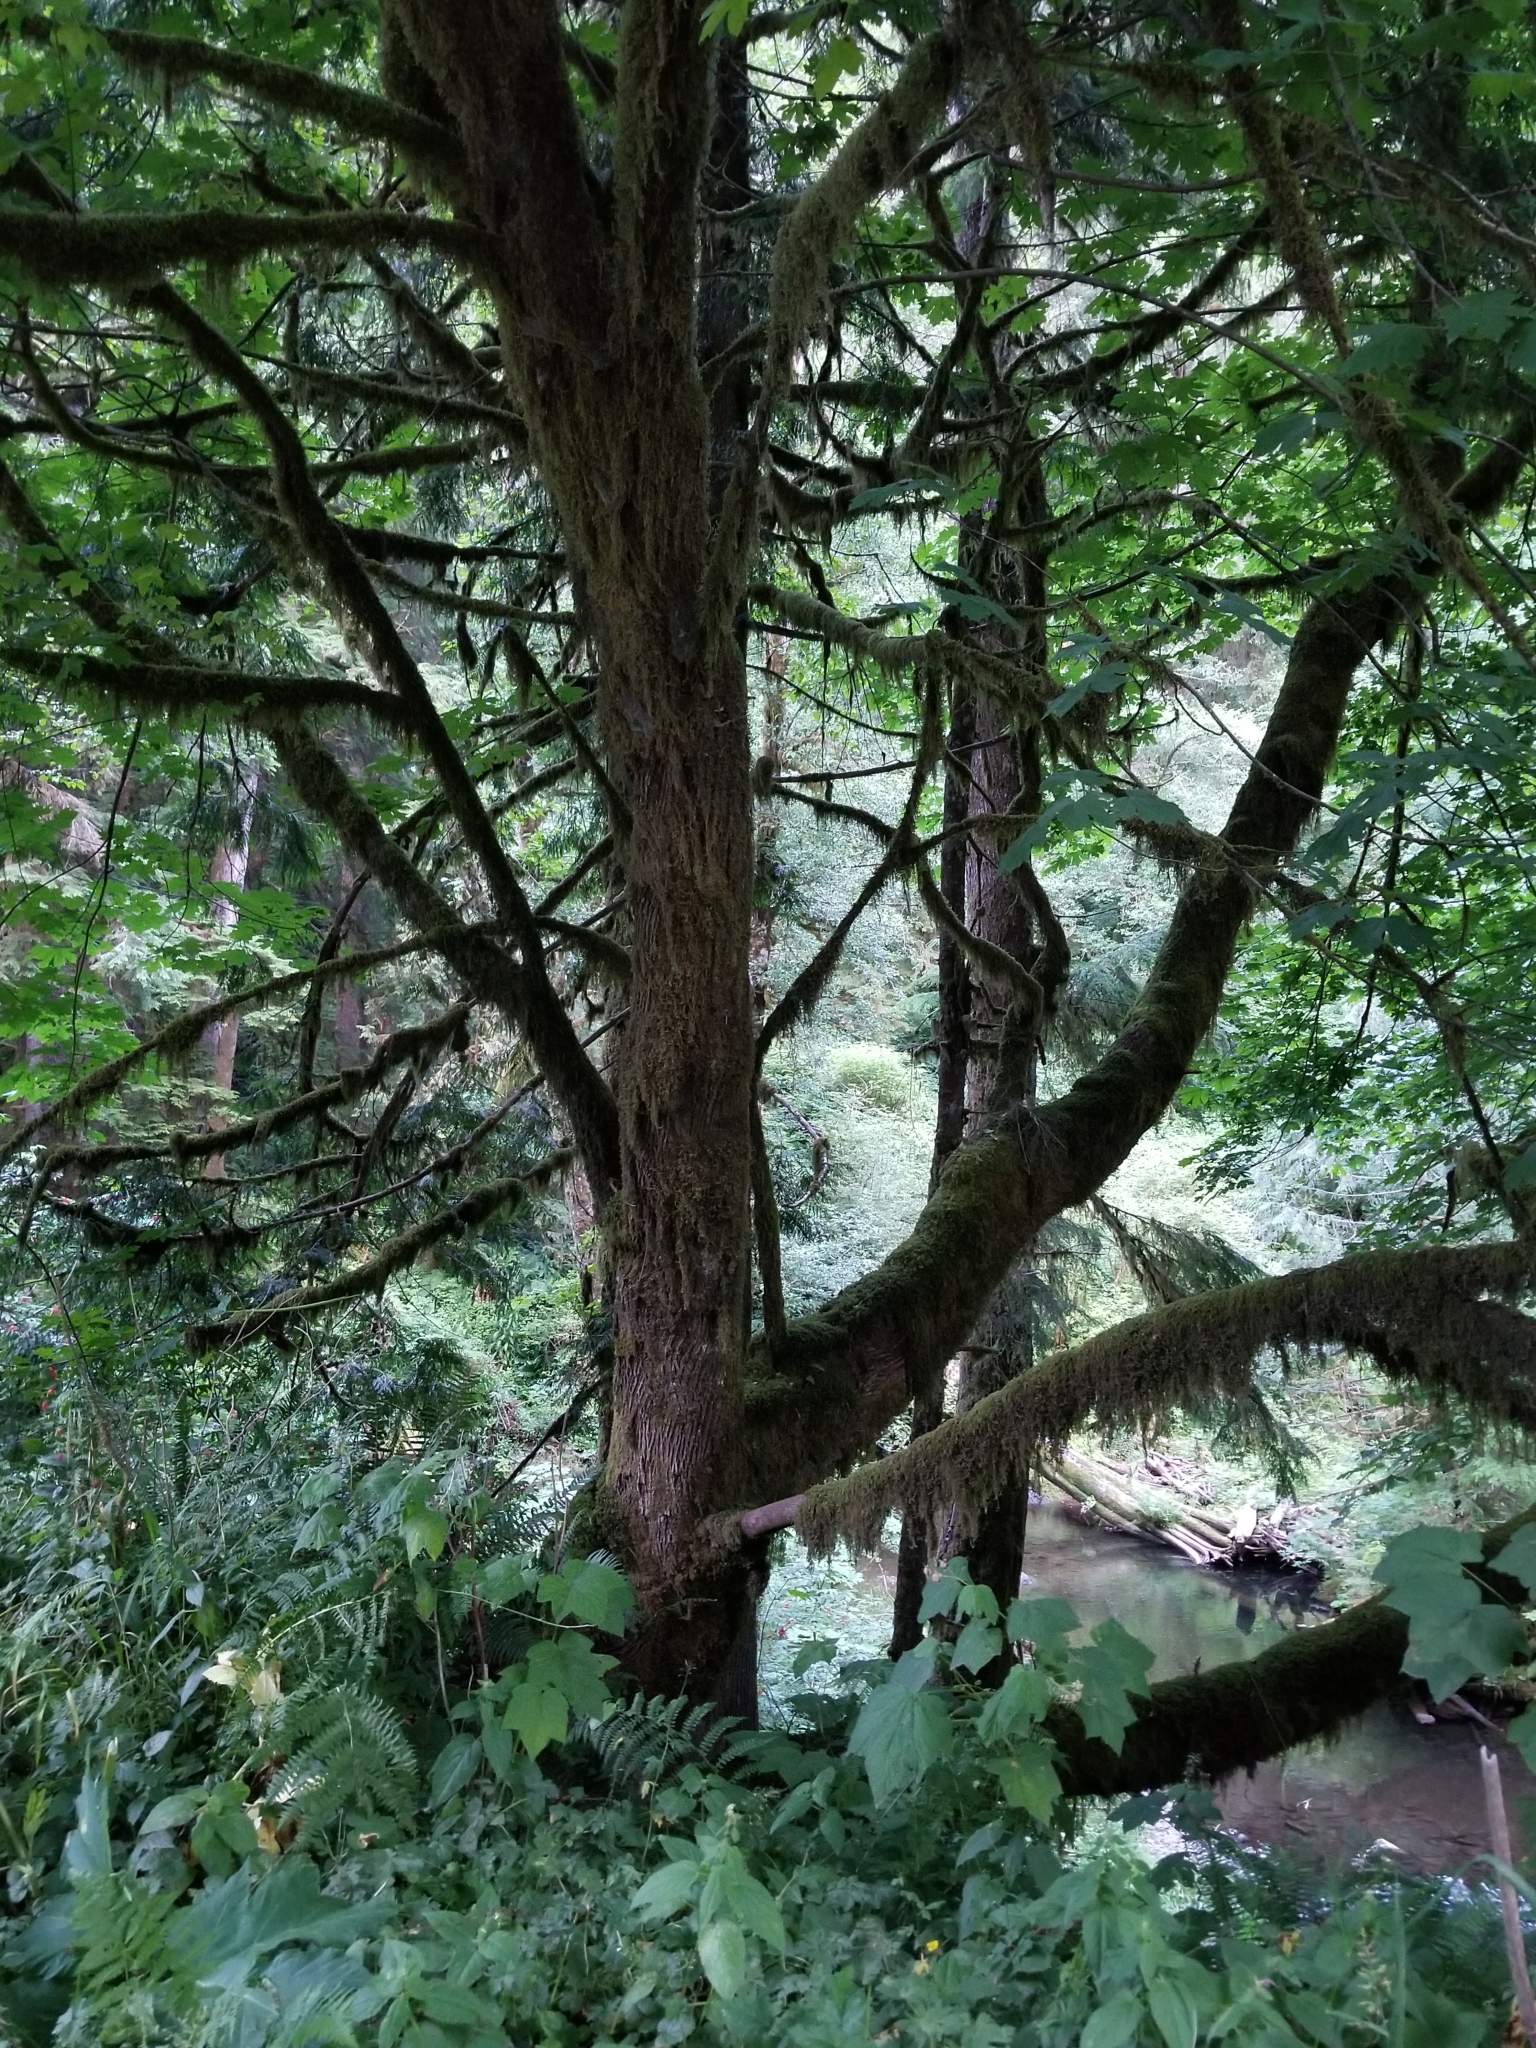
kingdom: Plantae
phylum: Tracheophyta
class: Magnoliopsida
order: Sapindales
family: Sapindaceae
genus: Acer
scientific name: Acer macrophyllum
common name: Oregon maple
